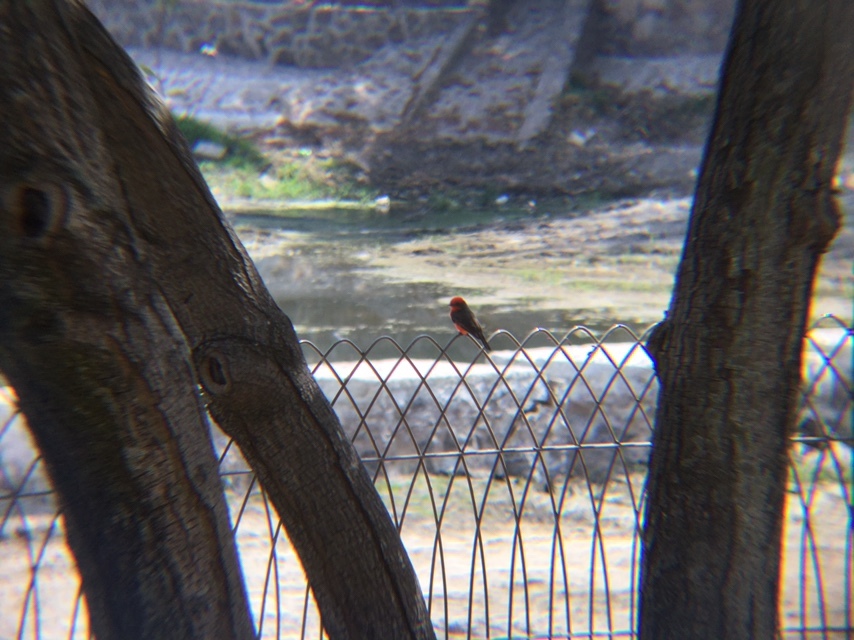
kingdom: Animalia
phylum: Chordata
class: Aves
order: Passeriformes
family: Tyrannidae
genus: Pyrocephalus
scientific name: Pyrocephalus rubinus
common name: Vermilion flycatcher
